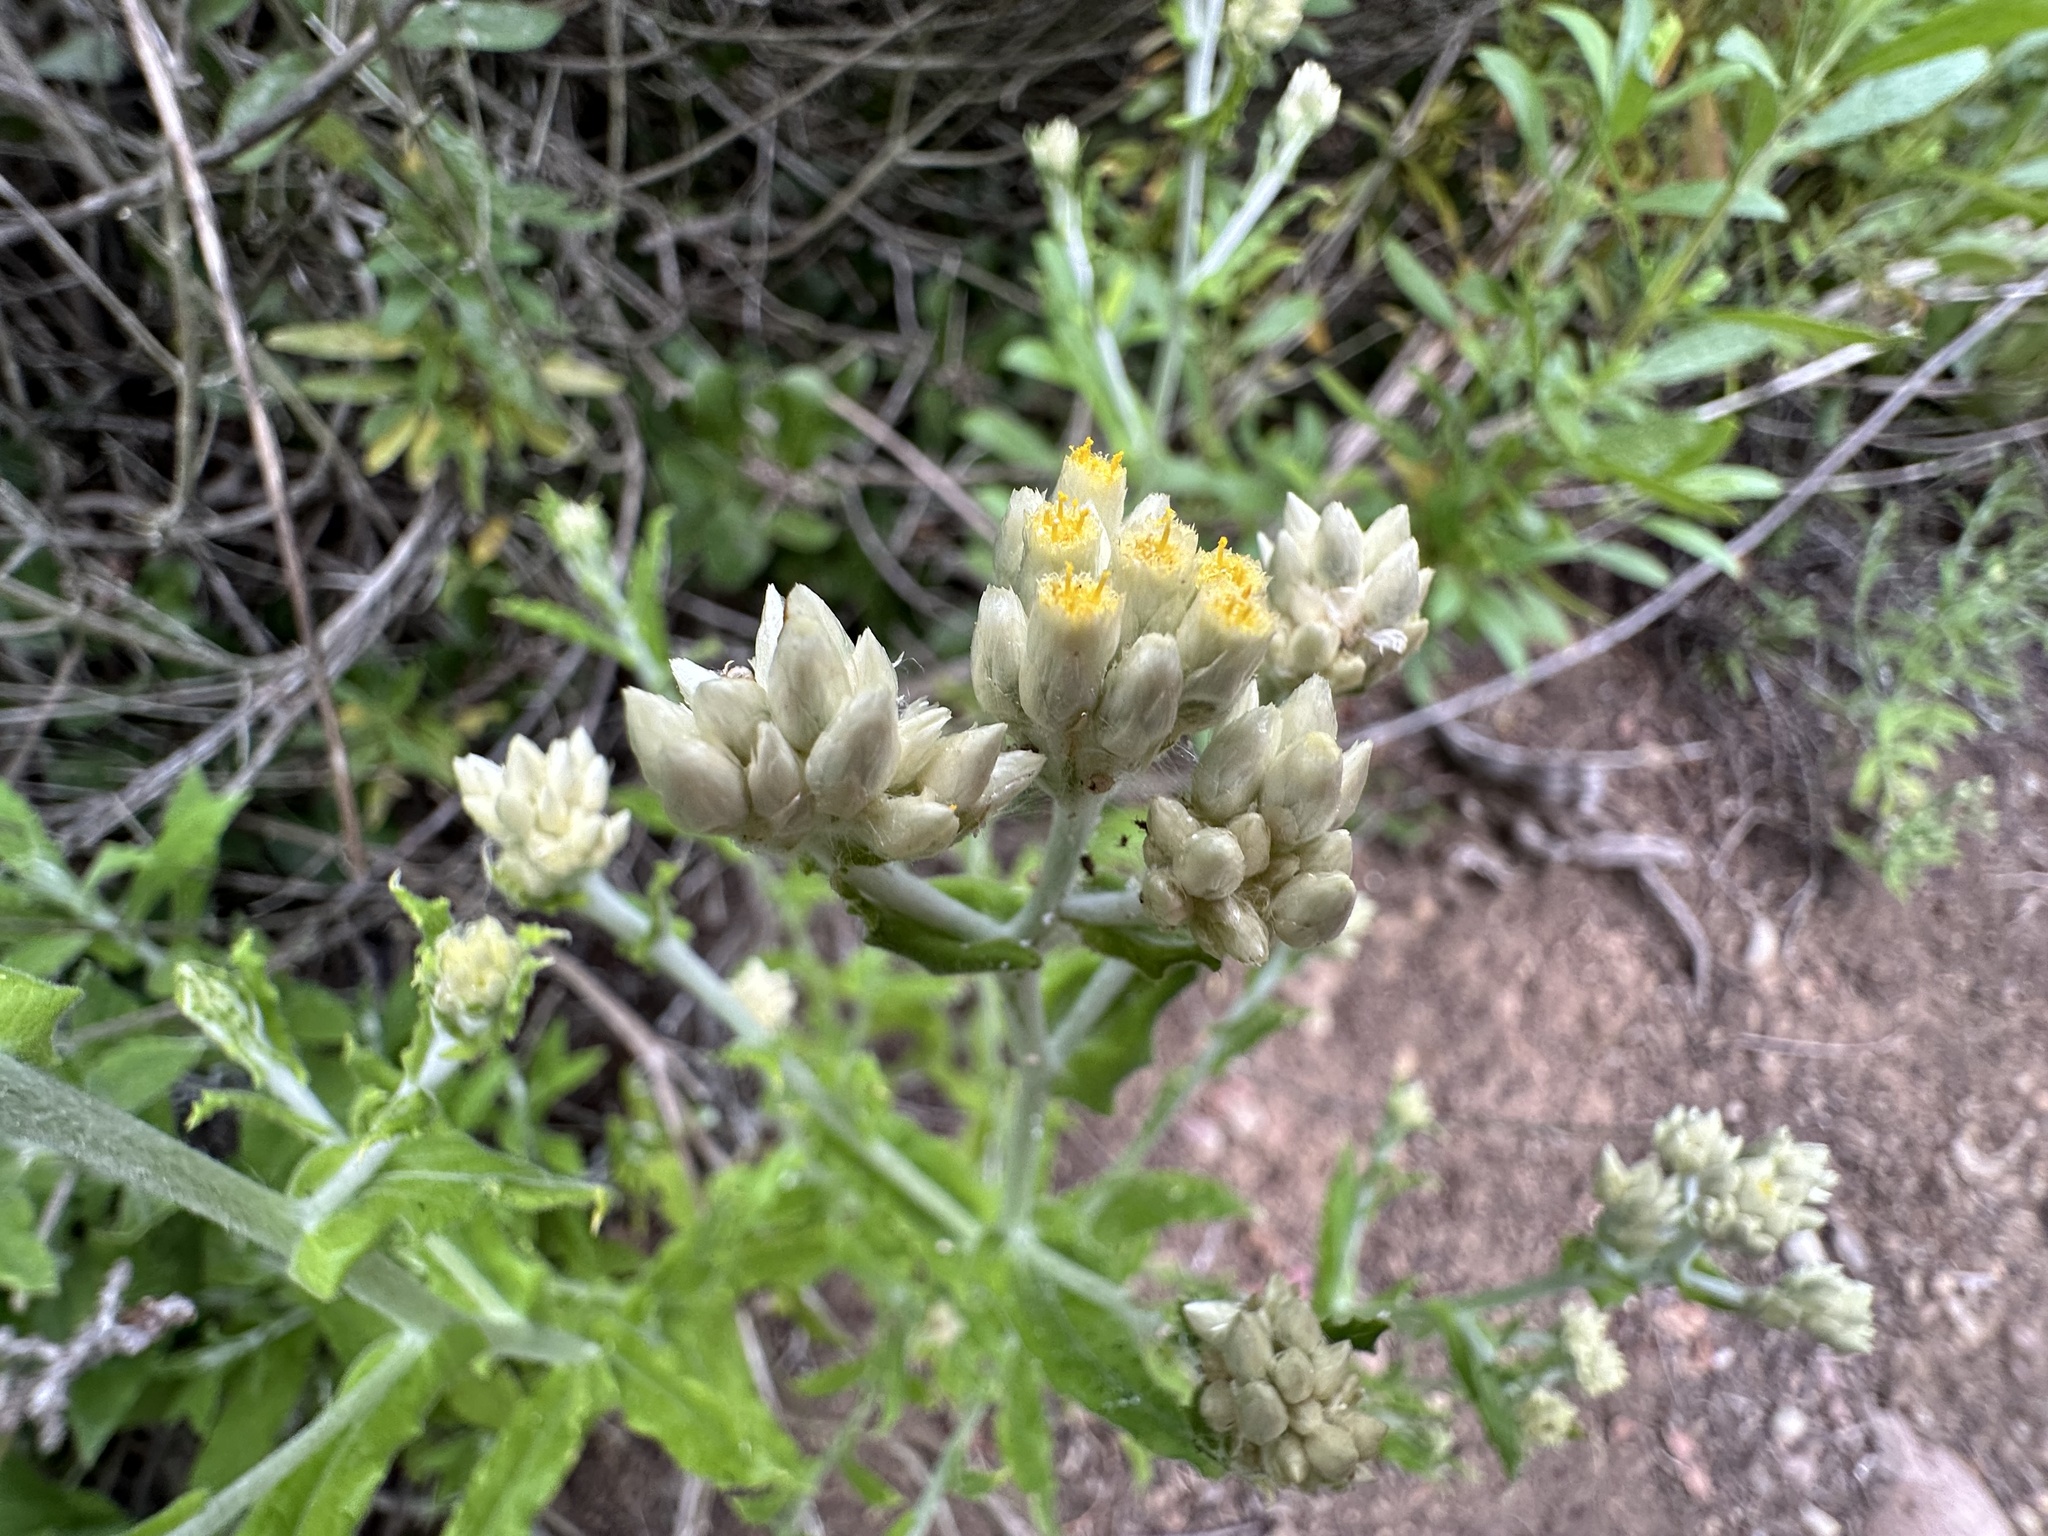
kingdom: Plantae
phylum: Tracheophyta
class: Magnoliopsida
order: Asterales
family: Asteraceae
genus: Pseudognaphalium
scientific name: Pseudognaphalium biolettii
